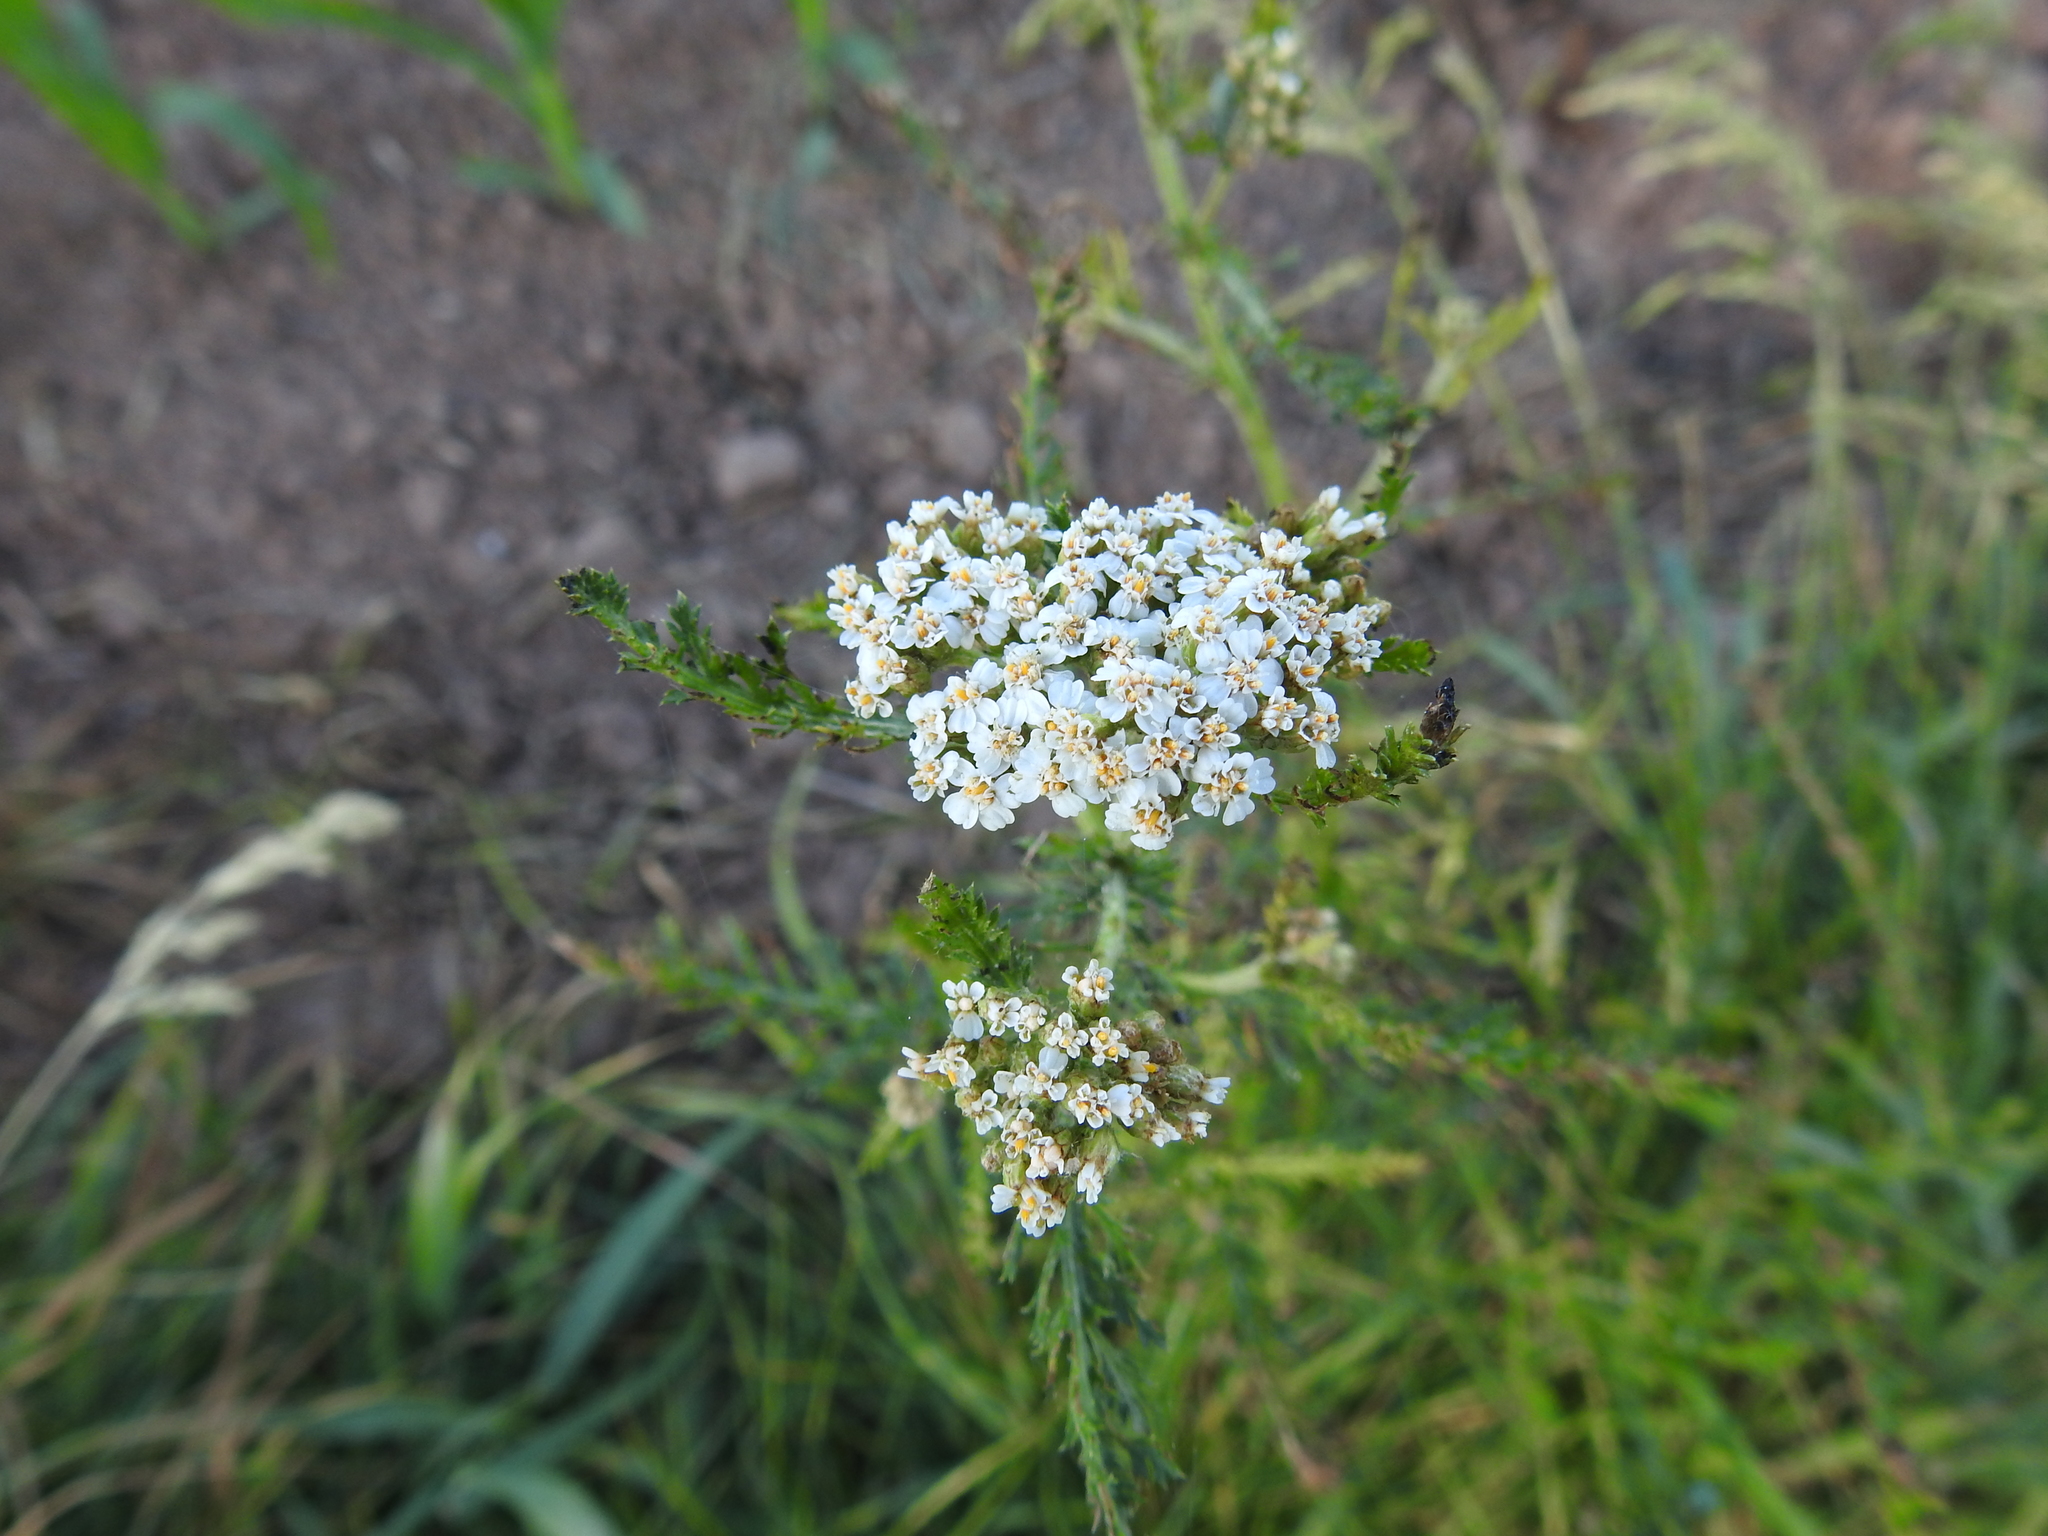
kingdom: Plantae
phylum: Tracheophyta
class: Magnoliopsida
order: Asterales
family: Asteraceae
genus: Achillea
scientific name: Achillea millefolium
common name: Yarrow
